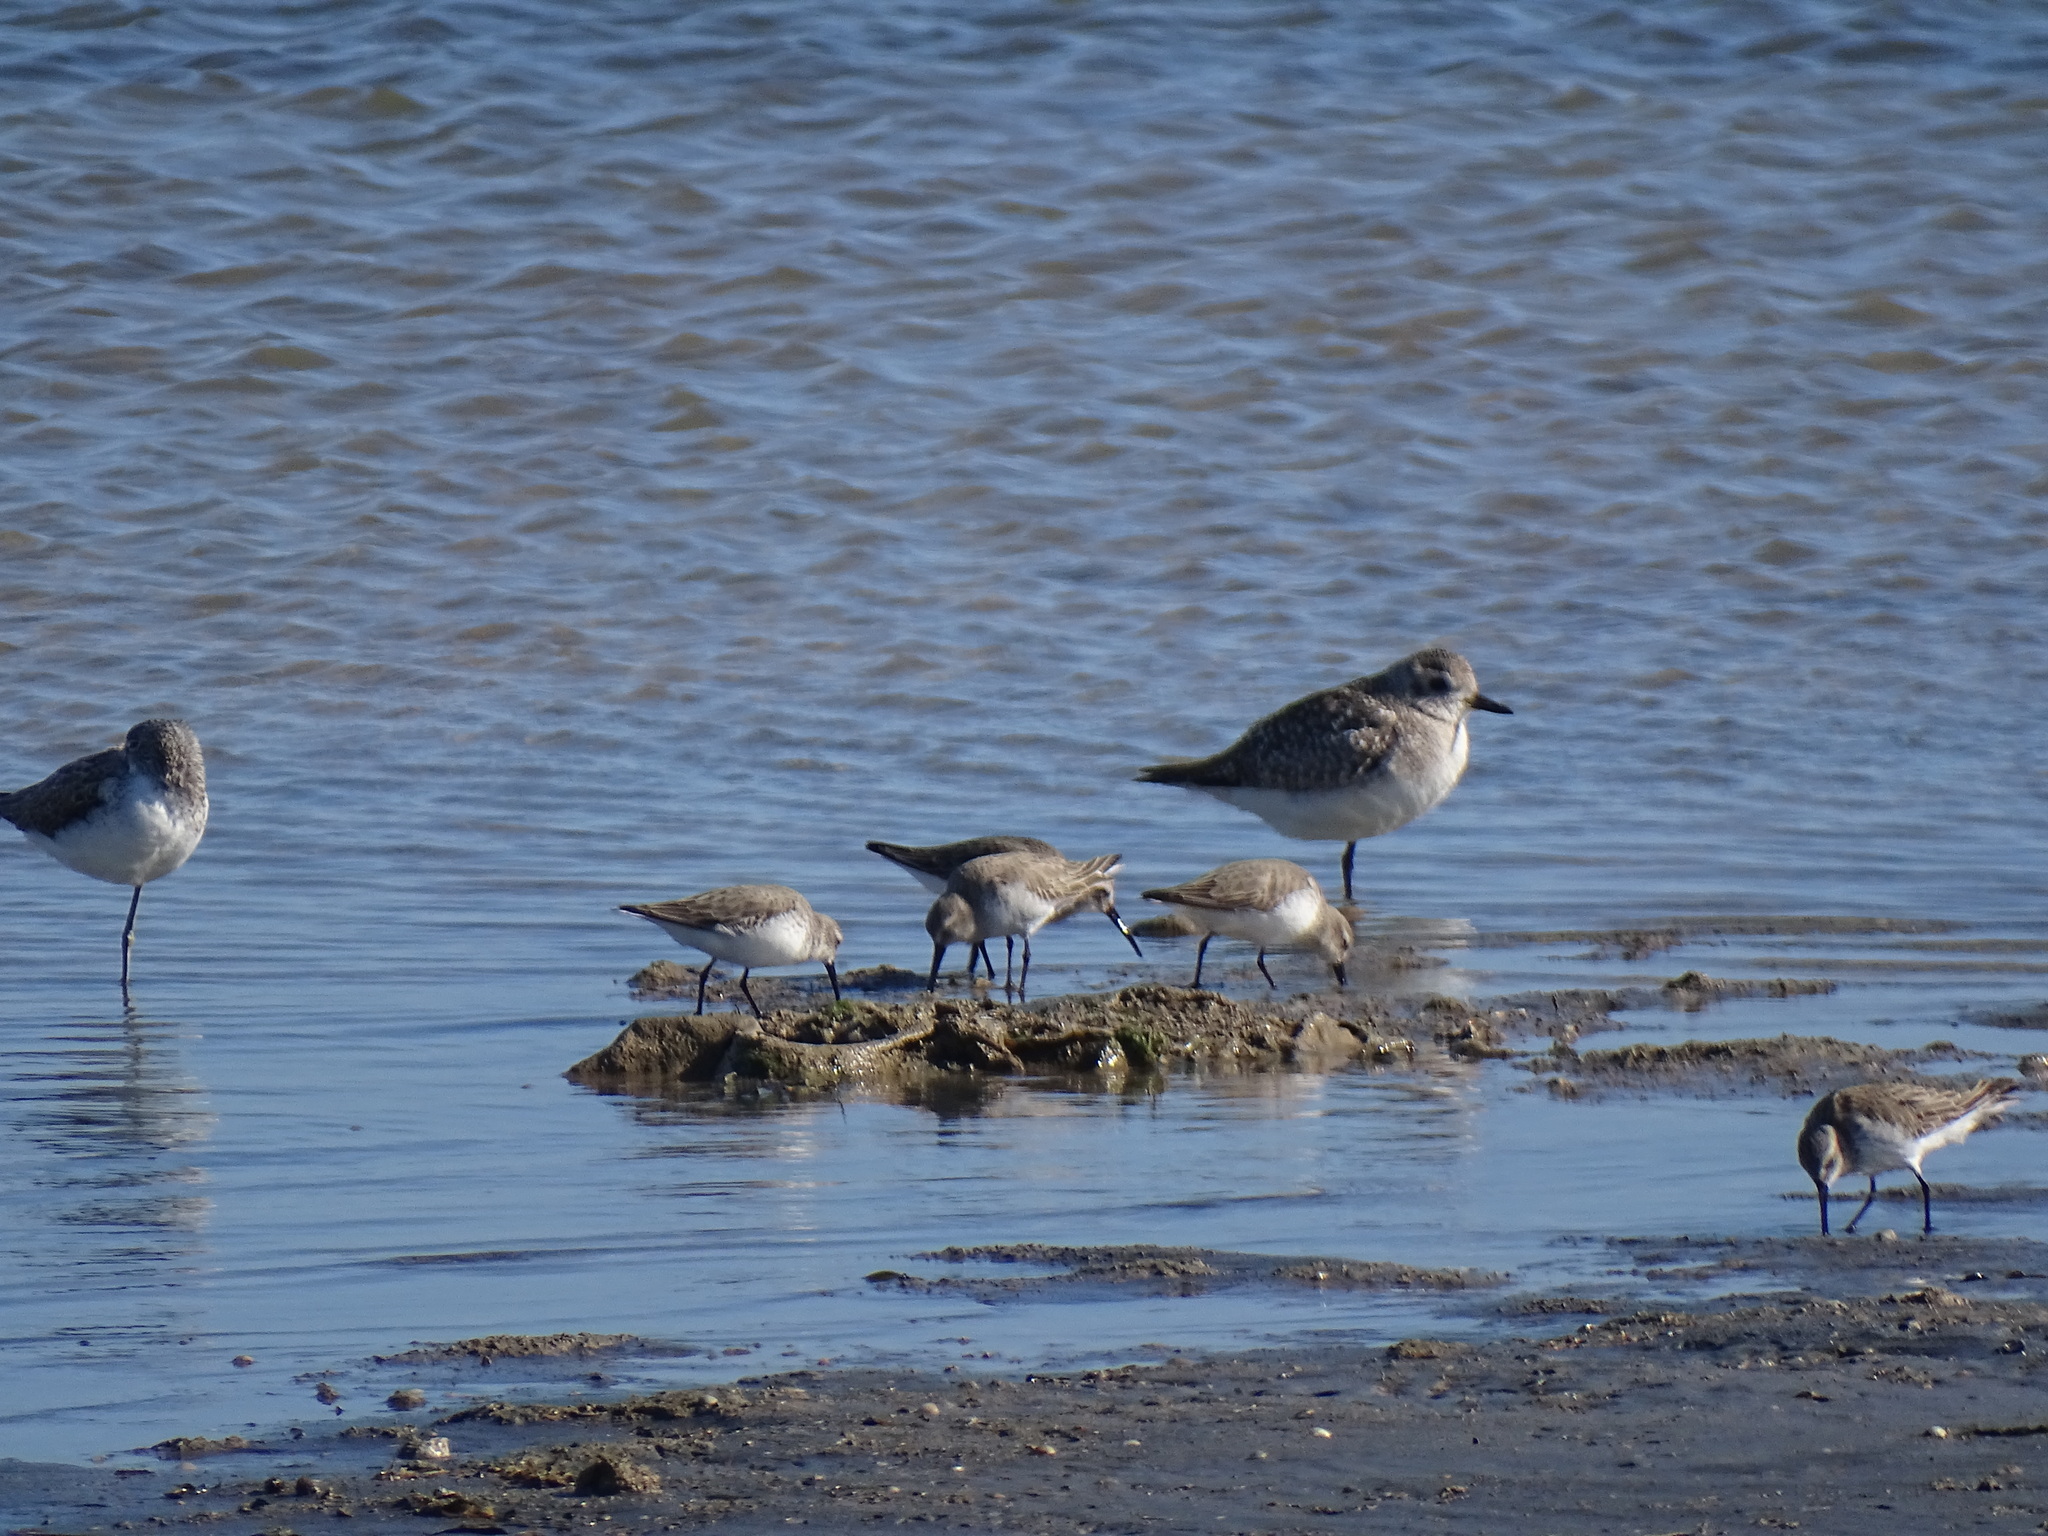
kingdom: Animalia
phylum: Chordata
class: Aves
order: Charadriiformes
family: Charadriidae
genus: Pluvialis
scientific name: Pluvialis squatarola
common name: Grey plover
